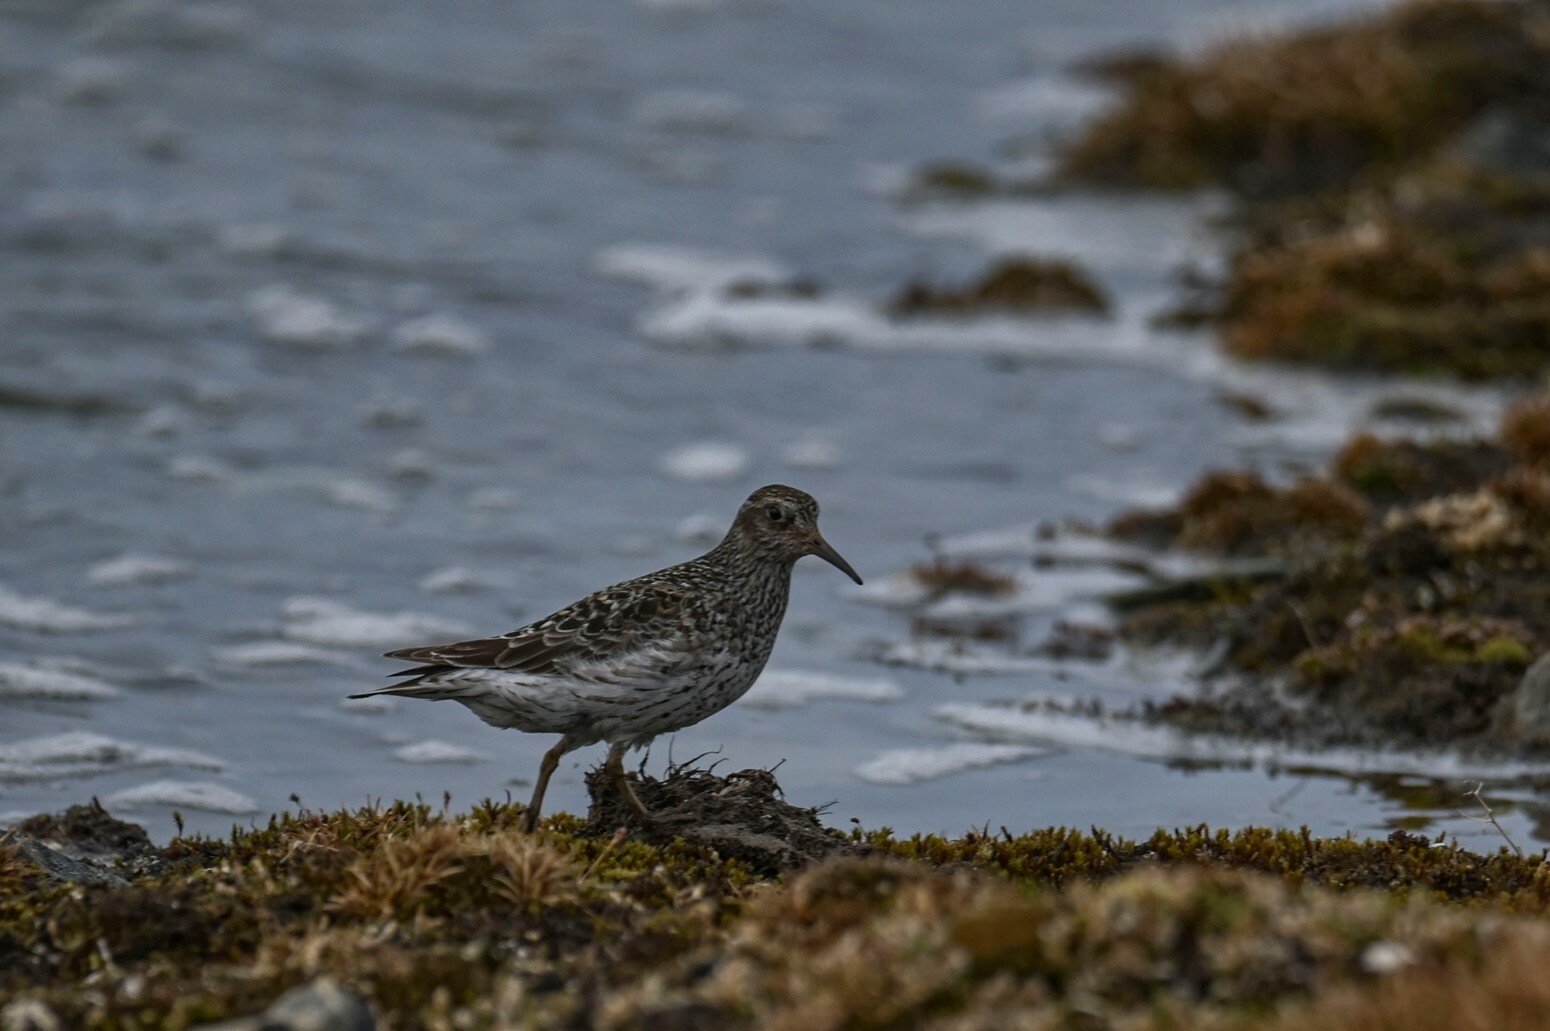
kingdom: Animalia
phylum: Chordata
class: Aves
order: Charadriiformes
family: Scolopacidae
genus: Calidris
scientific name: Calidris maritima
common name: Purple sandpiper
